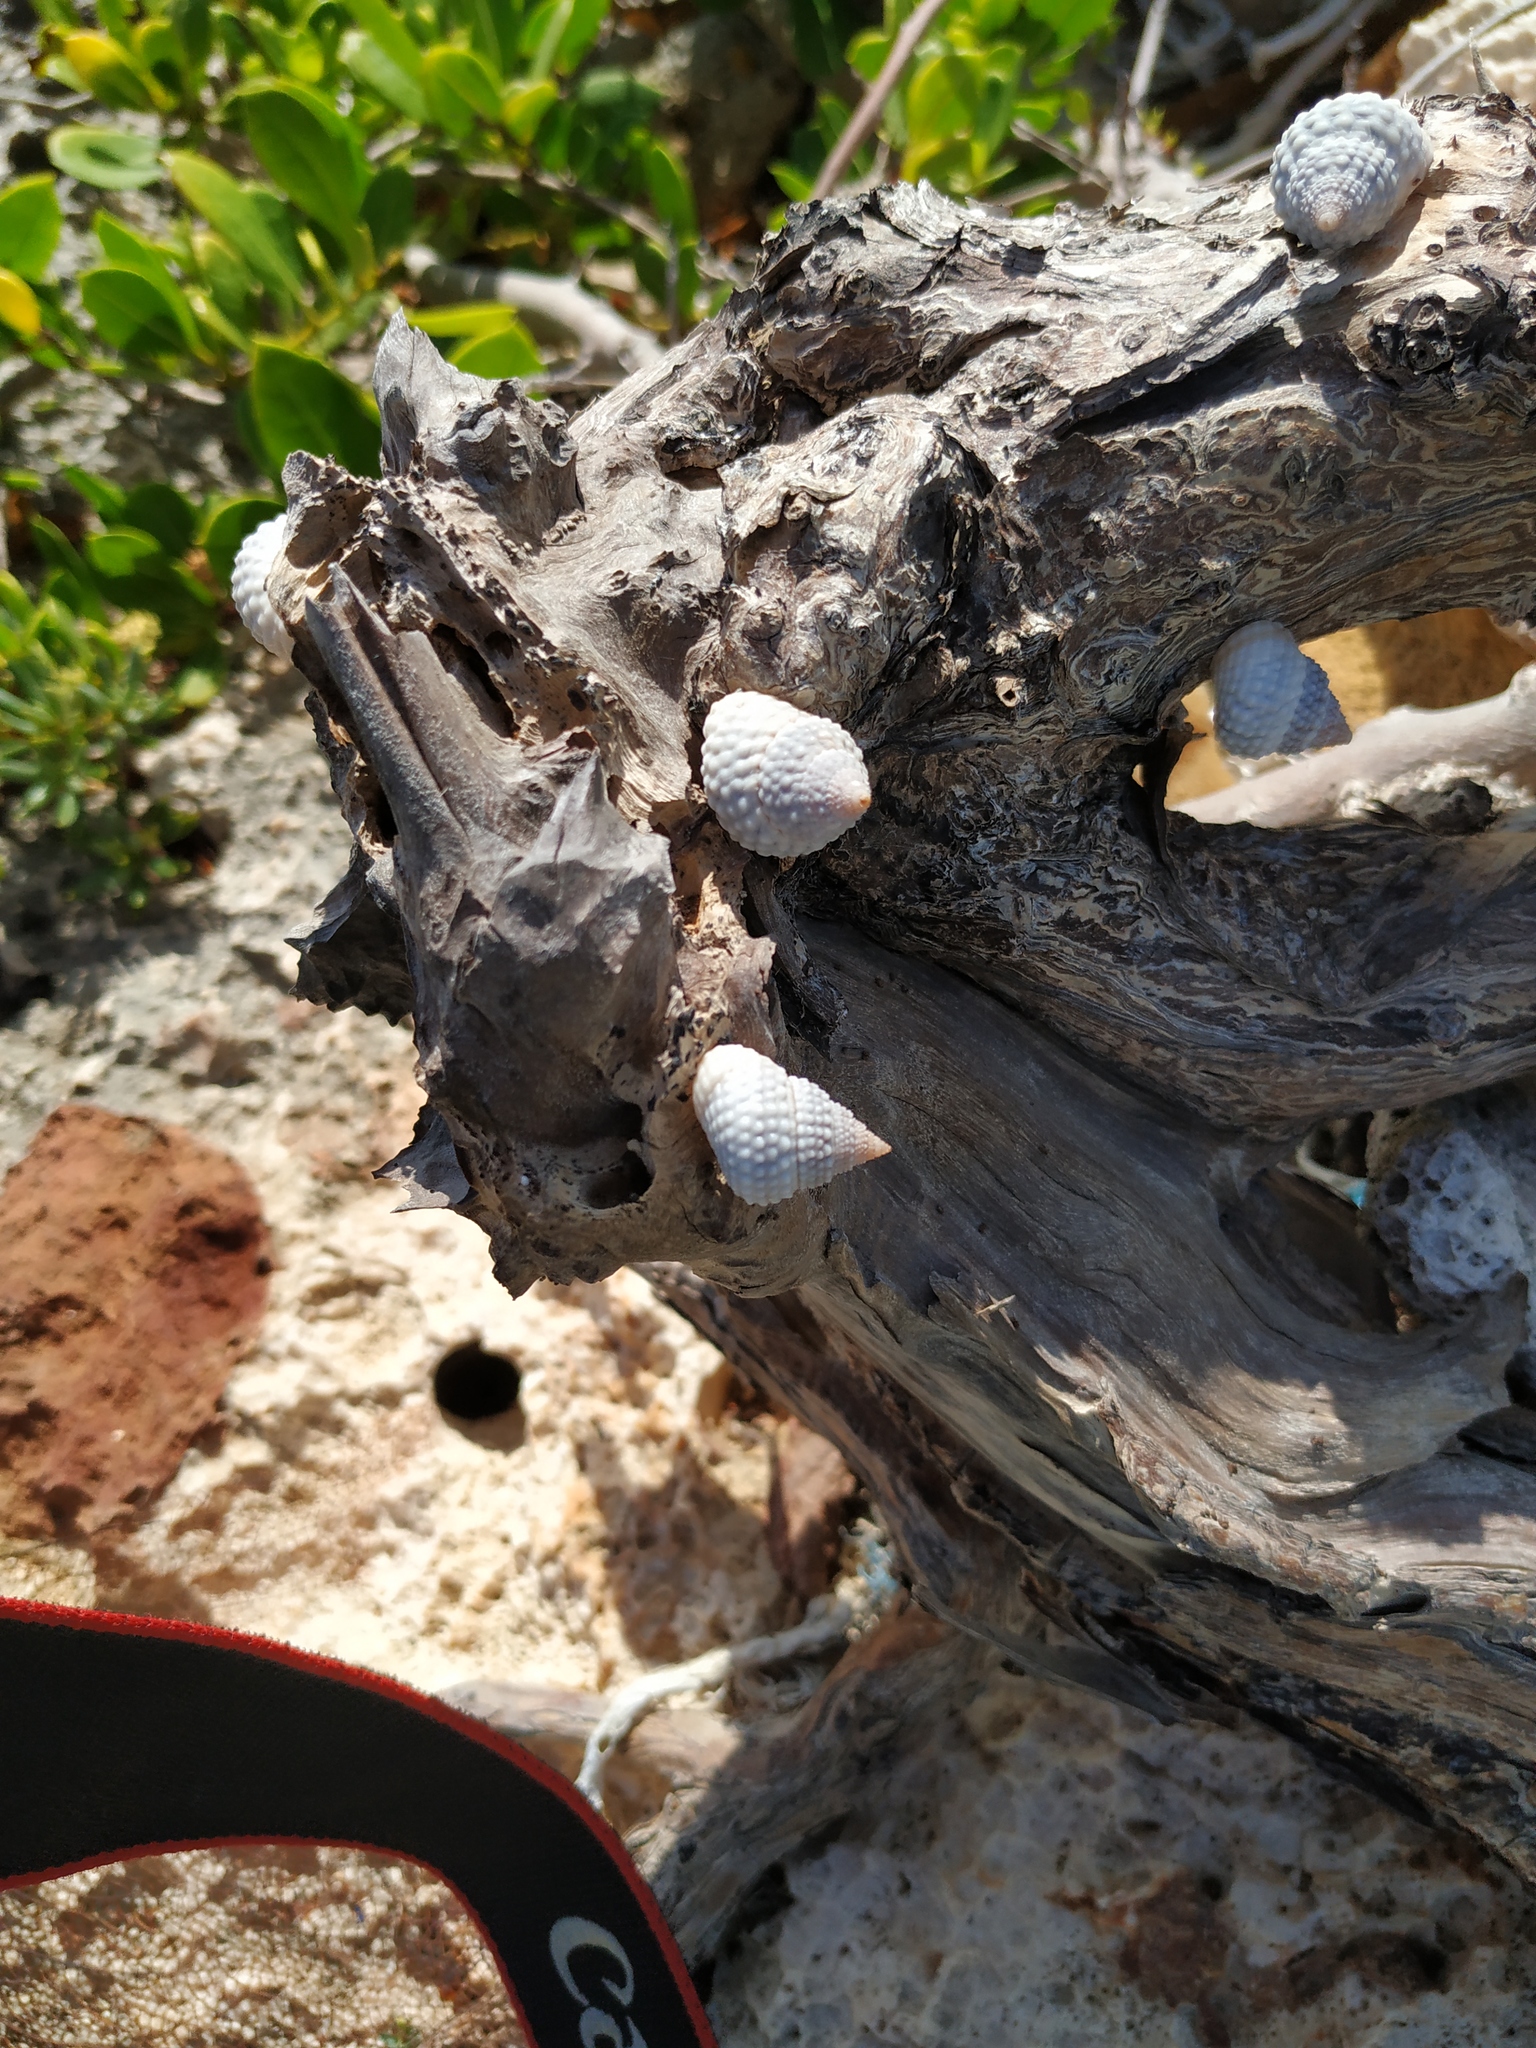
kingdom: Animalia
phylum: Mollusca
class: Gastropoda
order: Littorinimorpha
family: Littorinidae
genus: Cenchritis
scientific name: Cenchritis muricatus
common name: Beaded periwinkle
